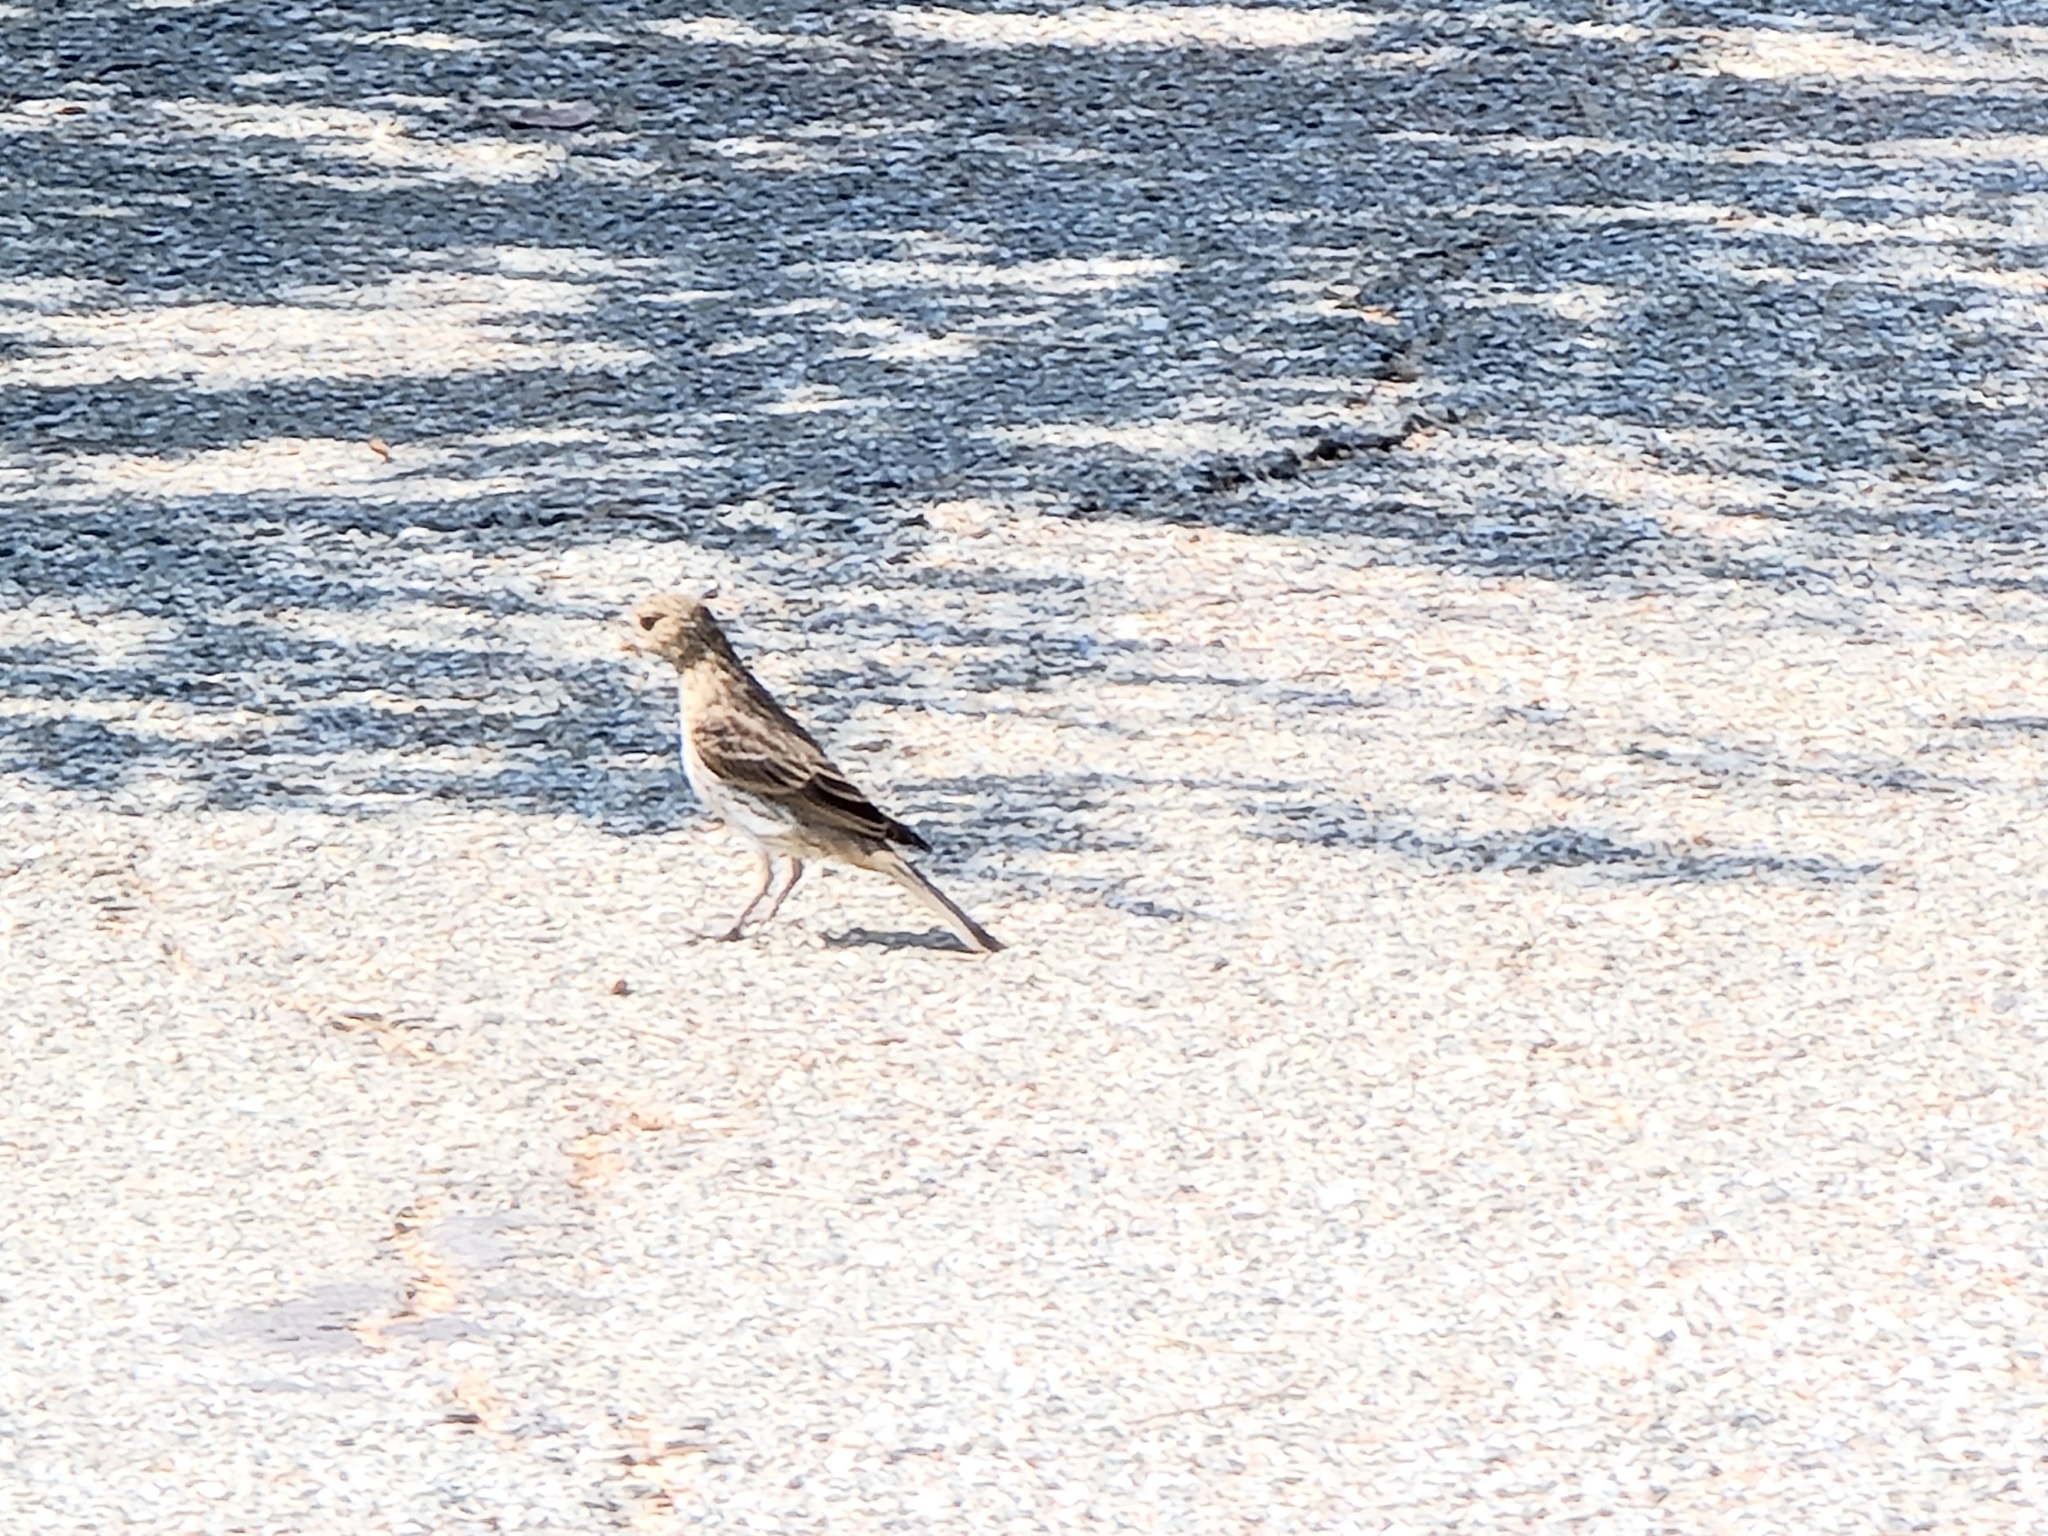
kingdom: Animalia
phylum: Chordata
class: Aves
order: Passeriformes
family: Fringillidae
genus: Haemorhous
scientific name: Haemorhous mexicanus
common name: House finch
